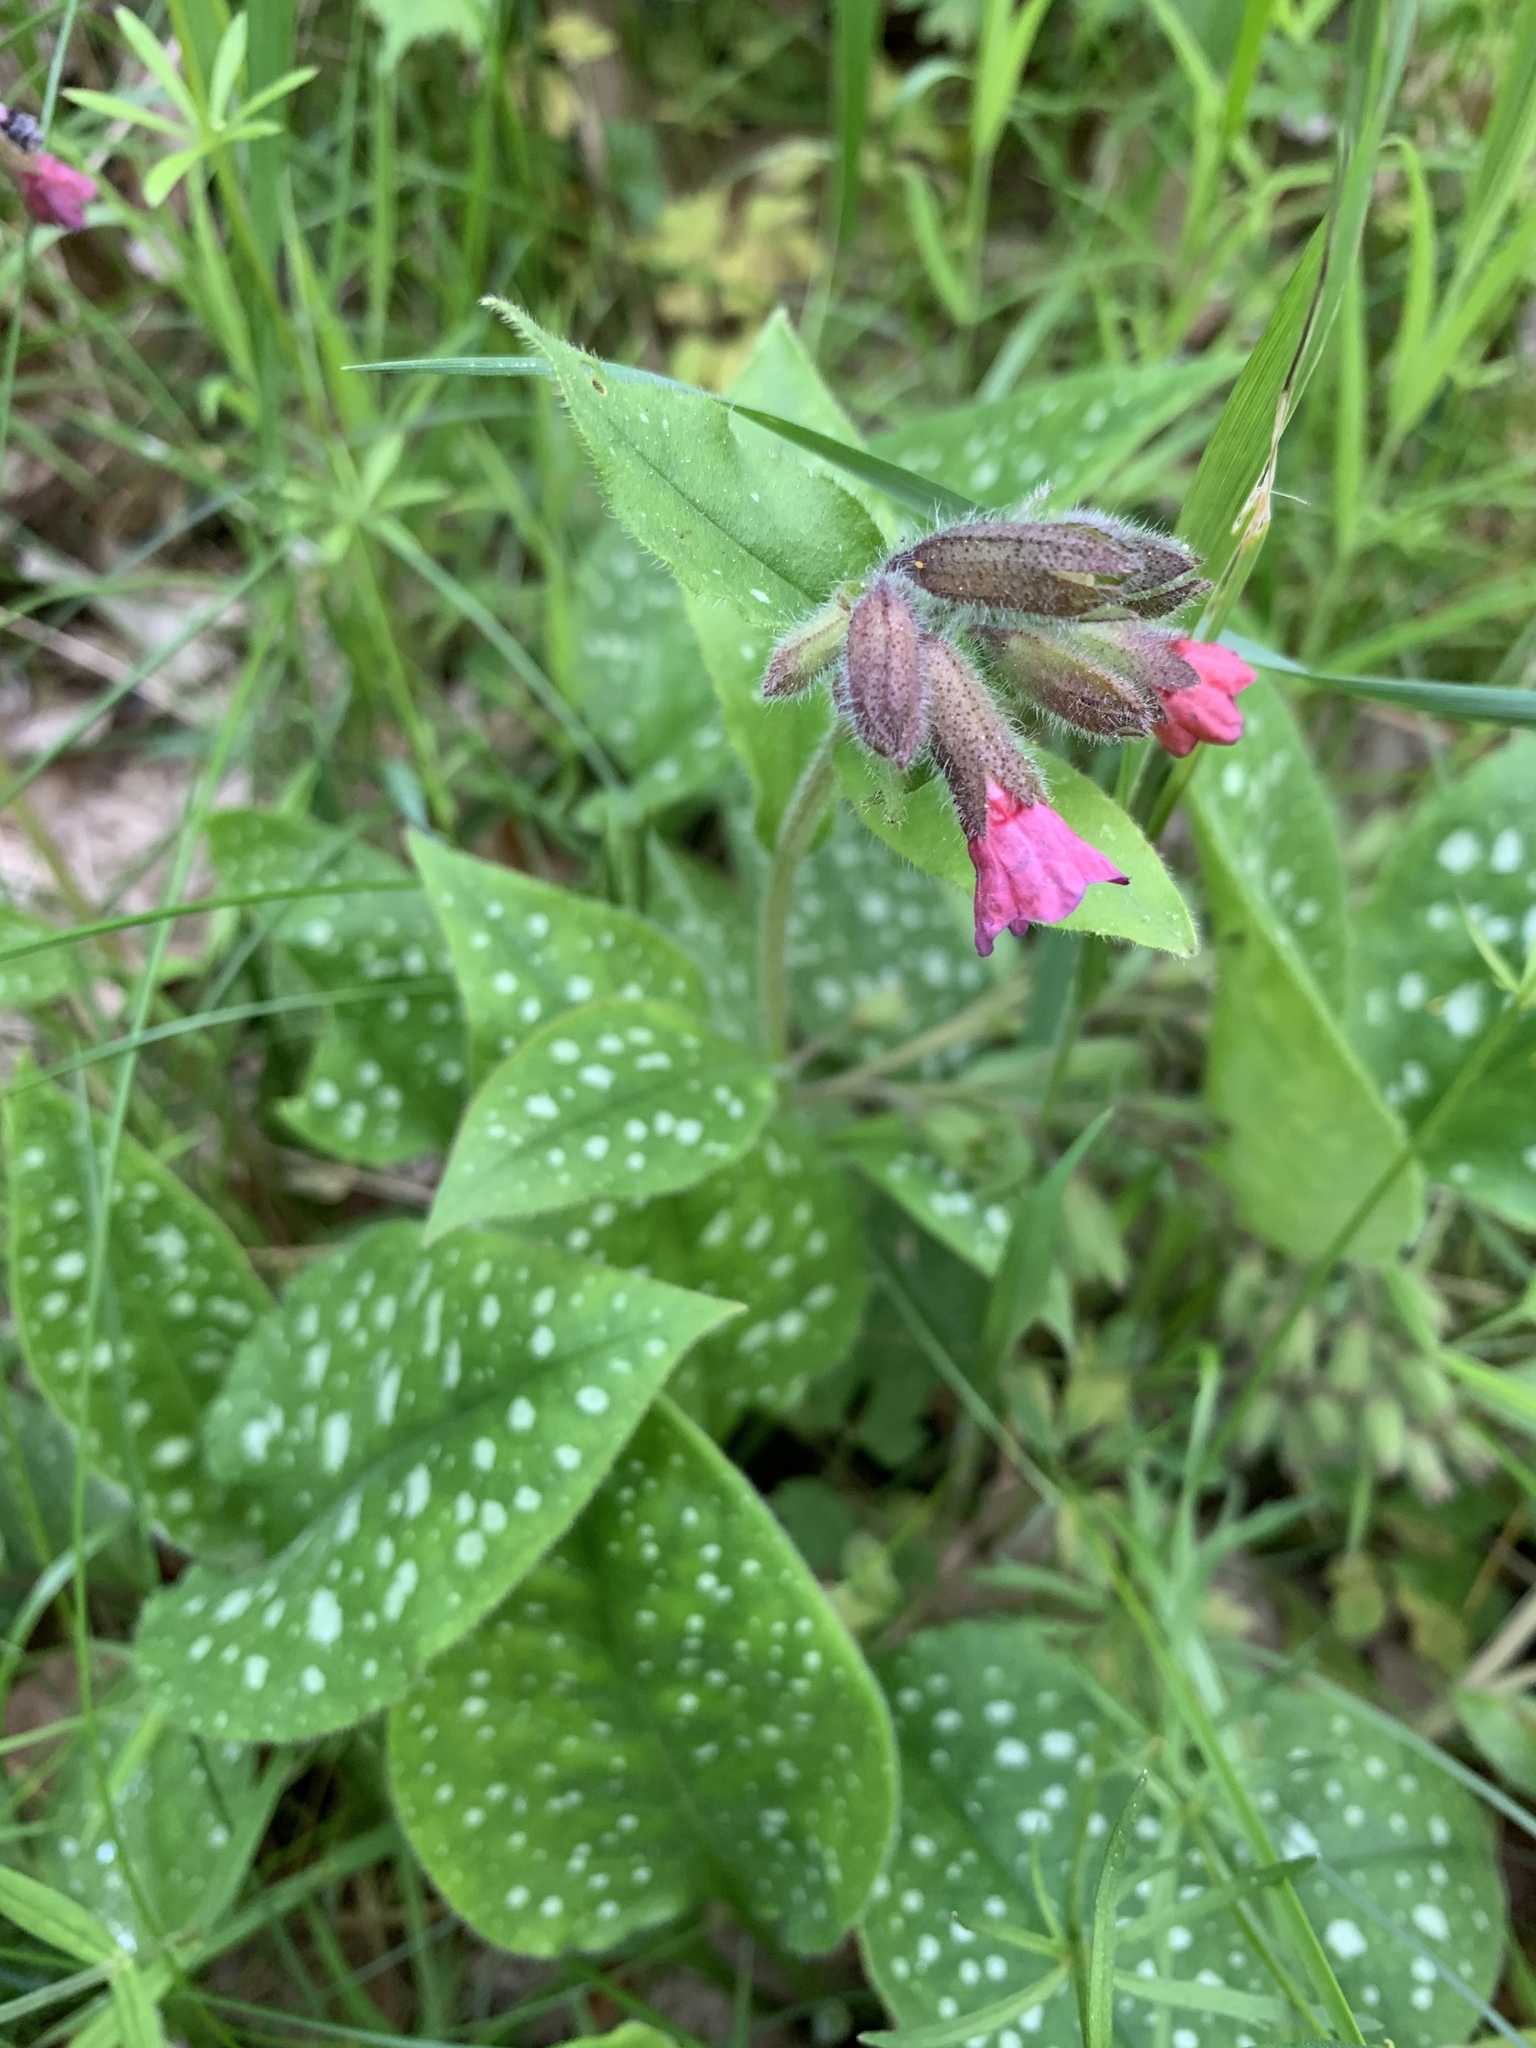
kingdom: Plantae
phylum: Tracheophyta
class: Magnoliopsida
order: Boraginales
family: Boraginaceae
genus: Pulmonaria
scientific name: Pulmonaria officinalis
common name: Lungwort
